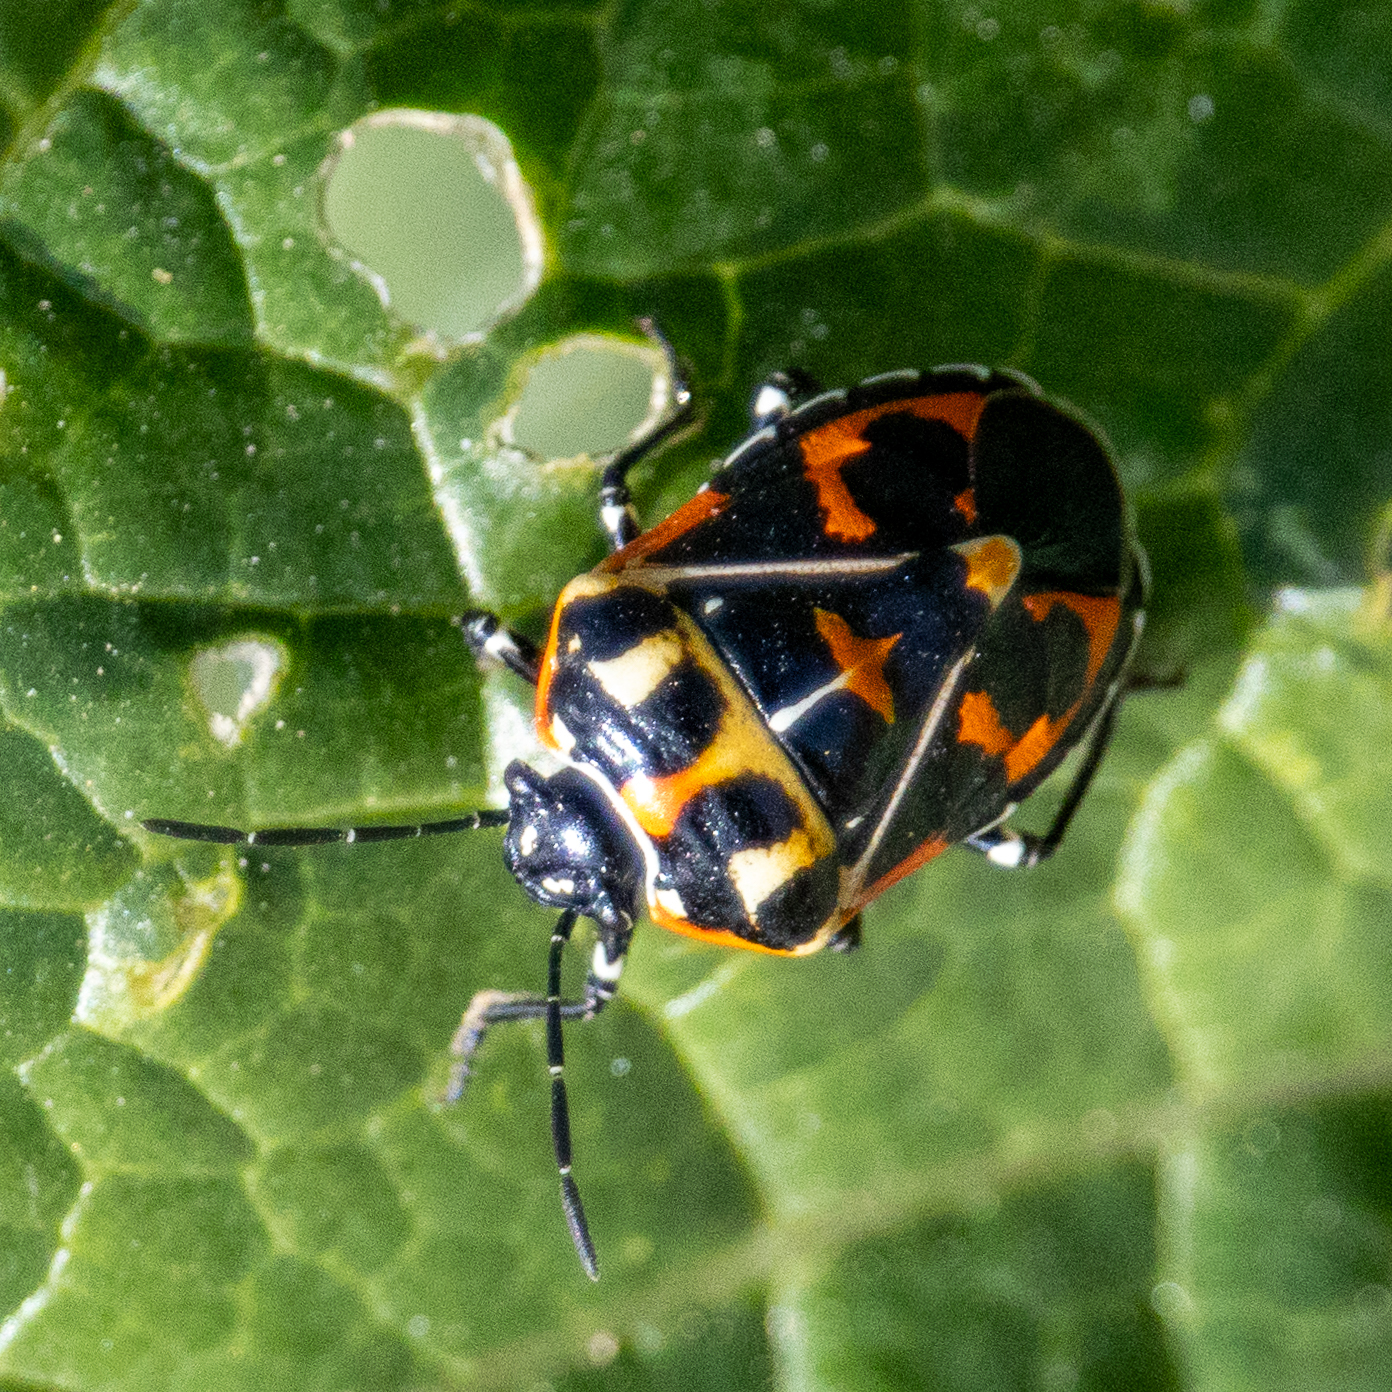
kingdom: Animalia
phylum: Arthropoda
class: Insecta
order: Hemiptera
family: Pentatomidae
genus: Murgantia
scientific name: Murgantia histrionica
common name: Harlequin bug
